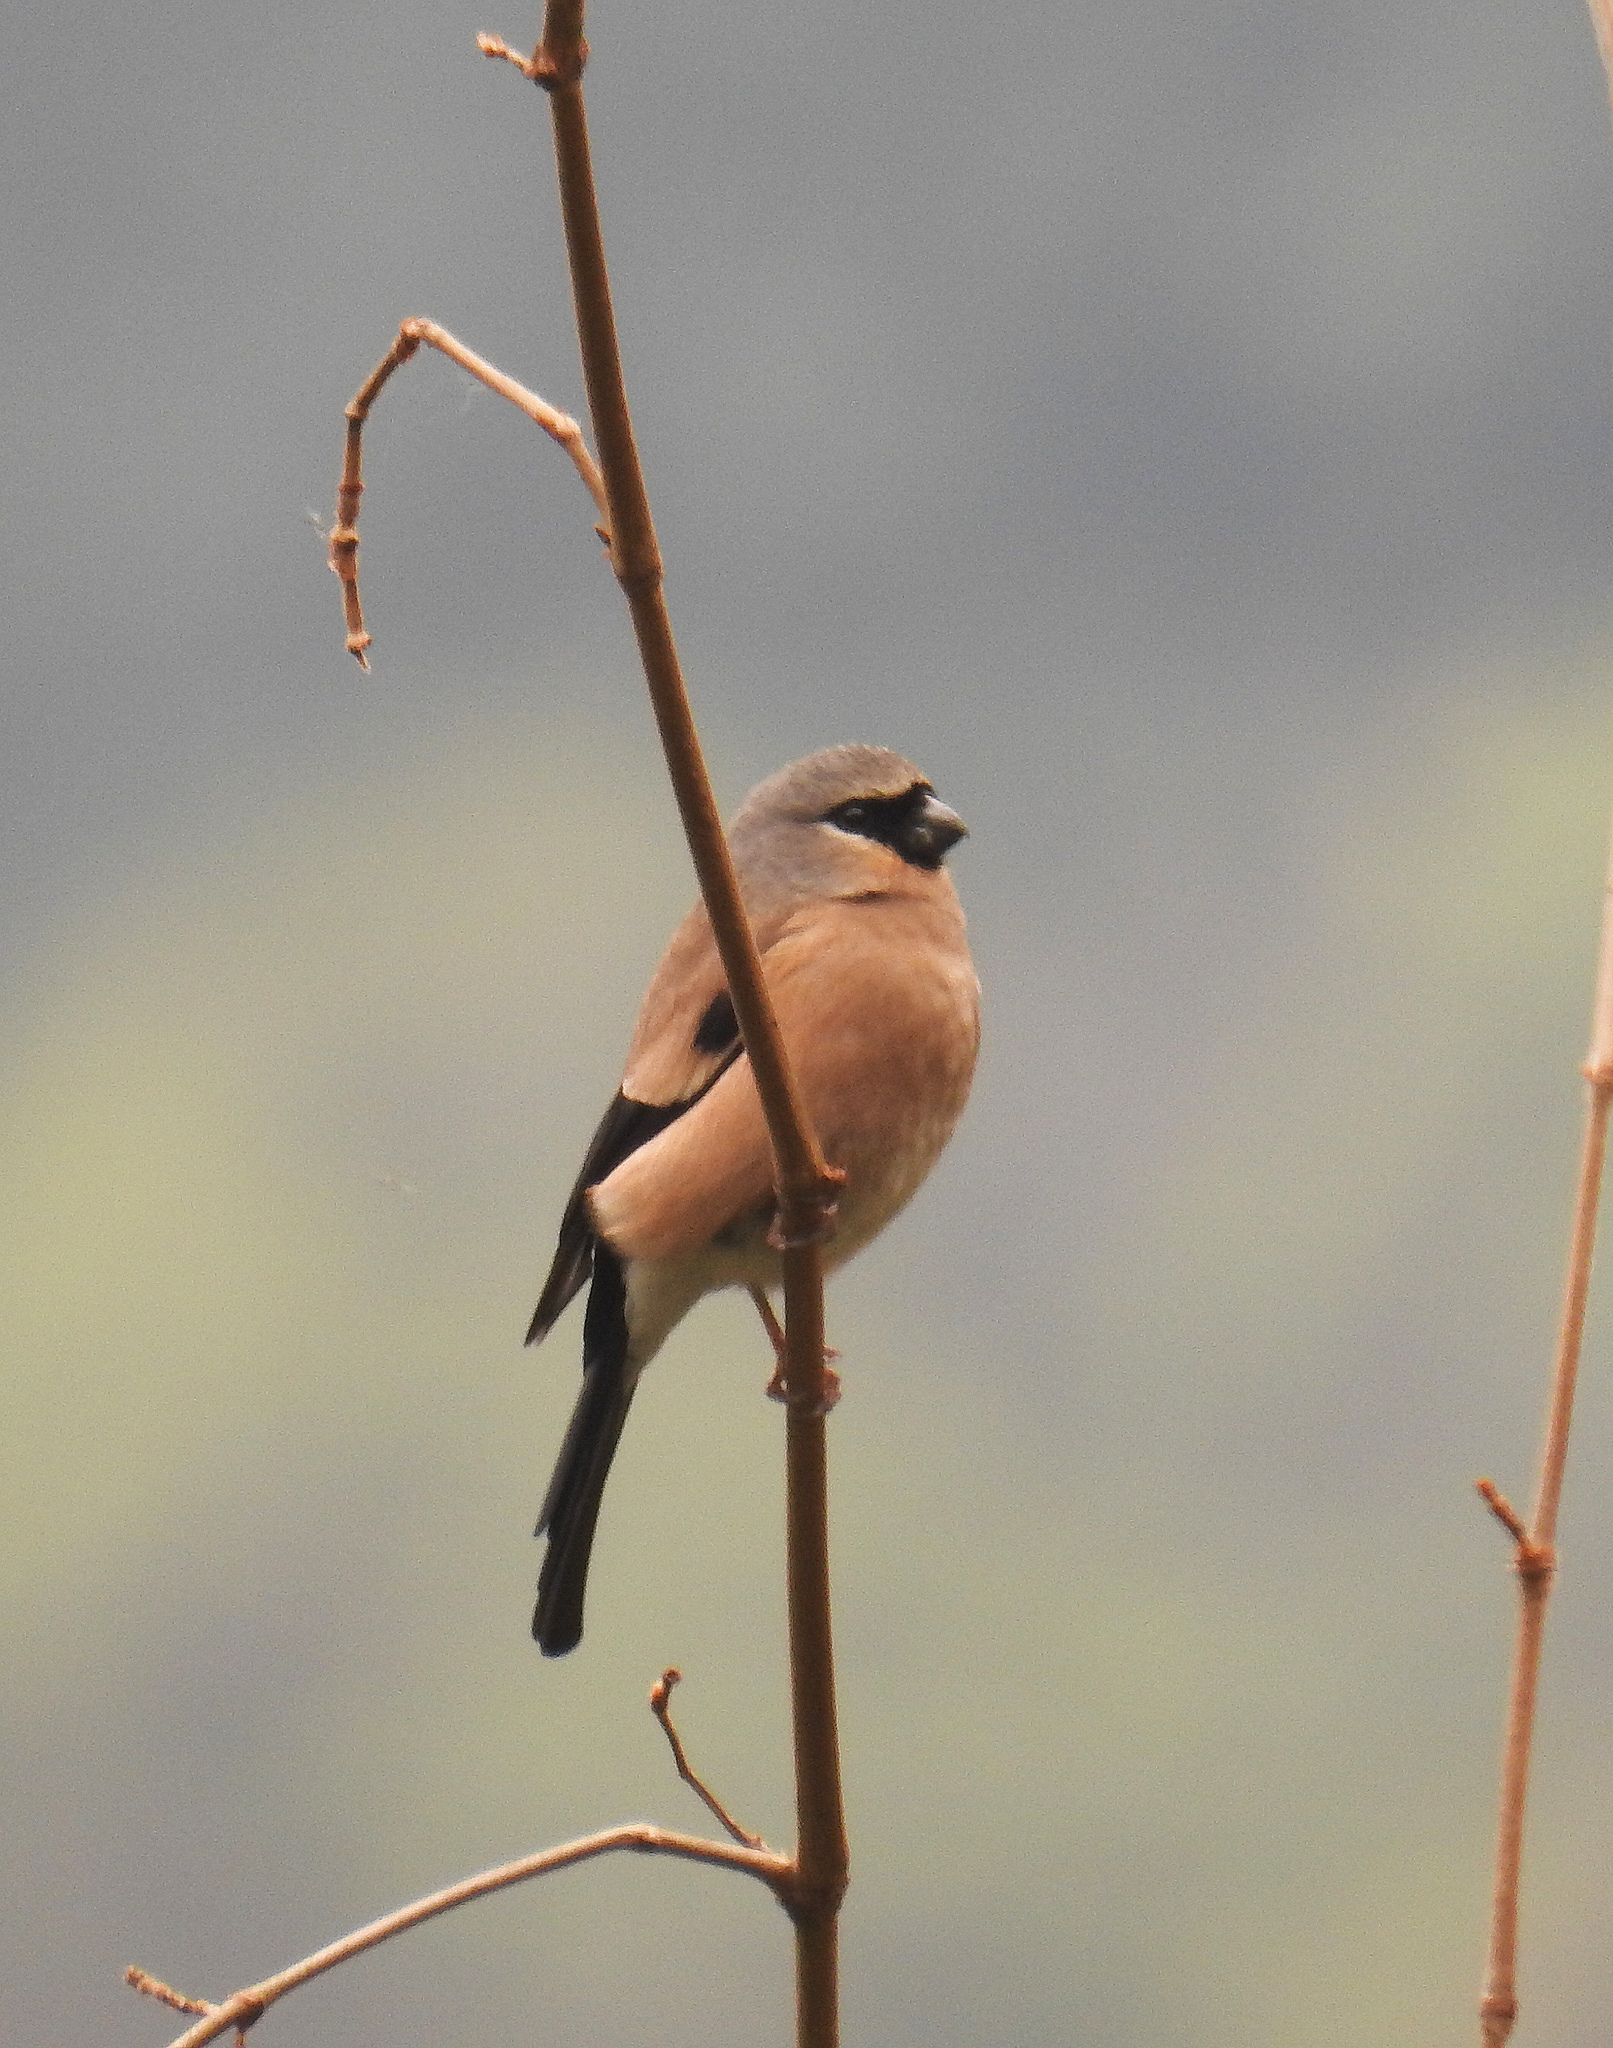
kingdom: Animalia
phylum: Chordata
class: Aves
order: Passeriformes
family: Fringillidae
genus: Pyrrhula
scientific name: Pyrrhula erythaca
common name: Grey-headed bullfinch
